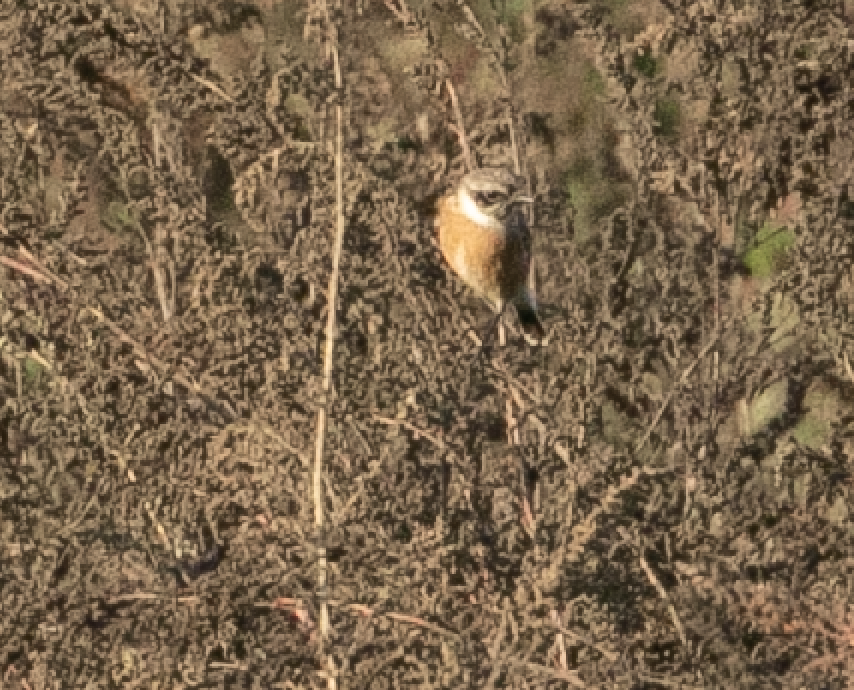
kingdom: Animalia
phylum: Chordata
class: Aves
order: Passeriformes
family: Muscicapidae
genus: Saxicola
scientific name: Saxicola rubicola
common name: European stonechat
